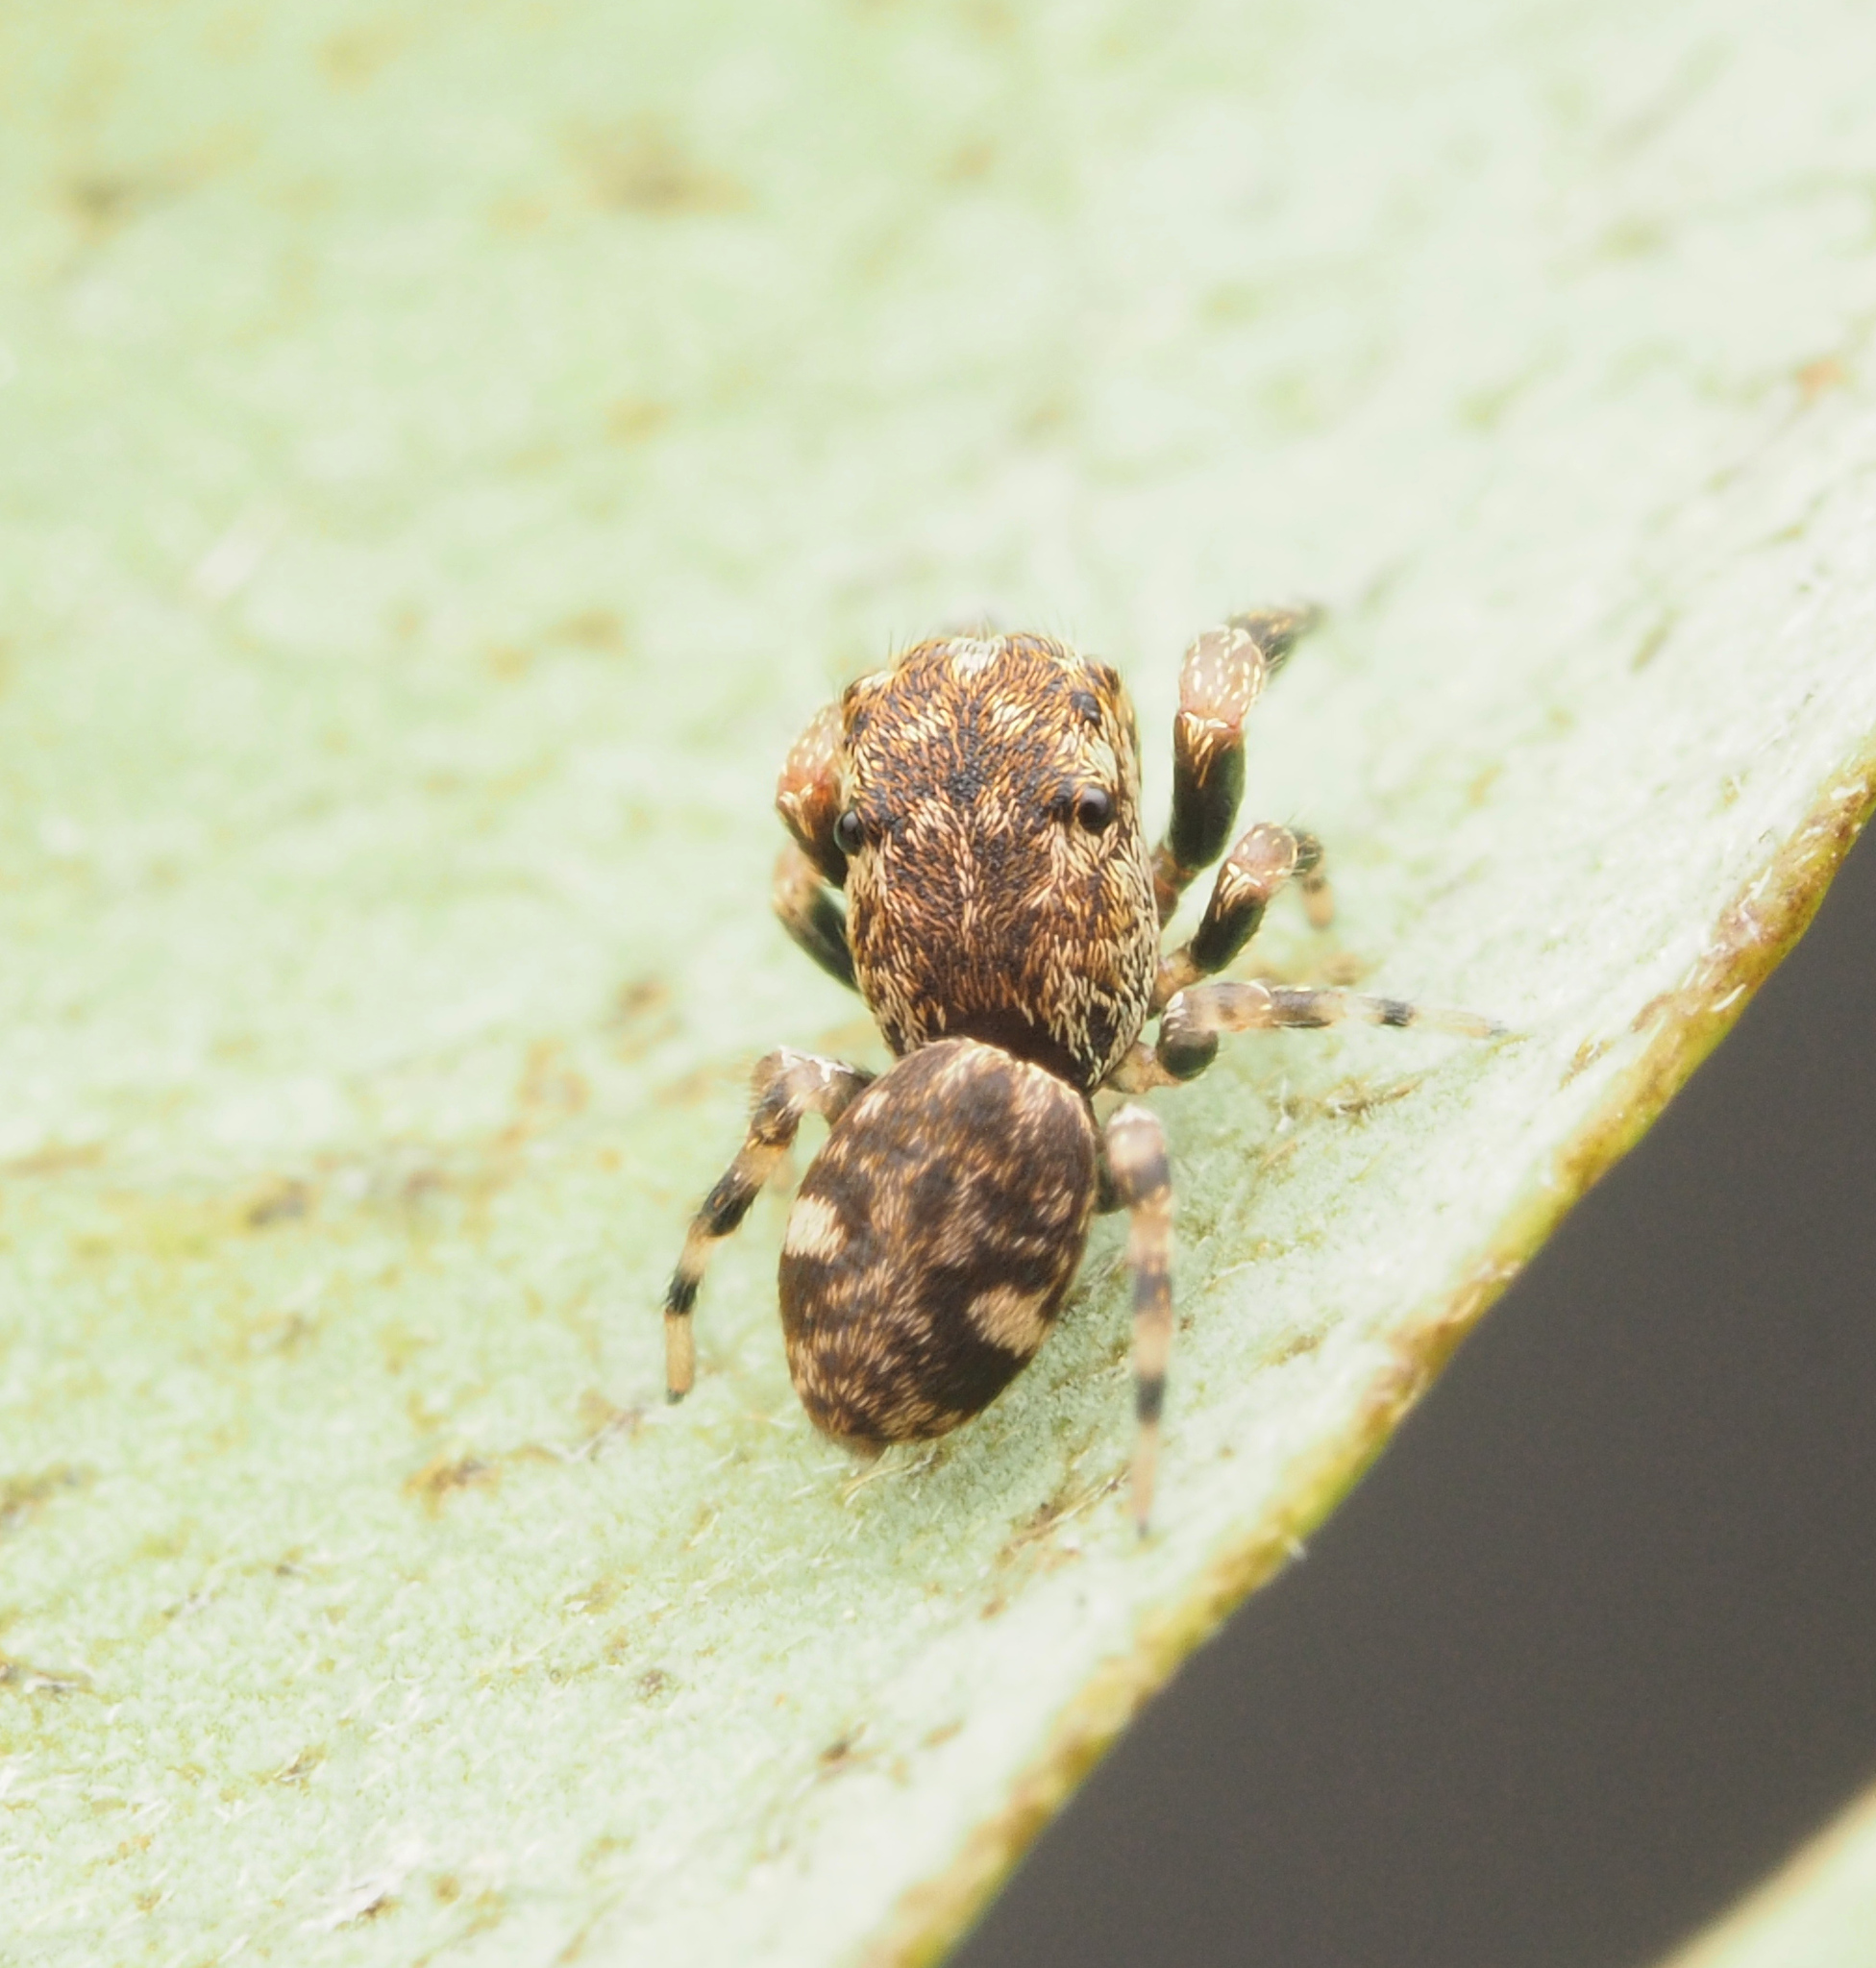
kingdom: Animalia
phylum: Arthropoda
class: Arachnida
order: Araneae
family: Salticidae
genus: Tara
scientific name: Tara
